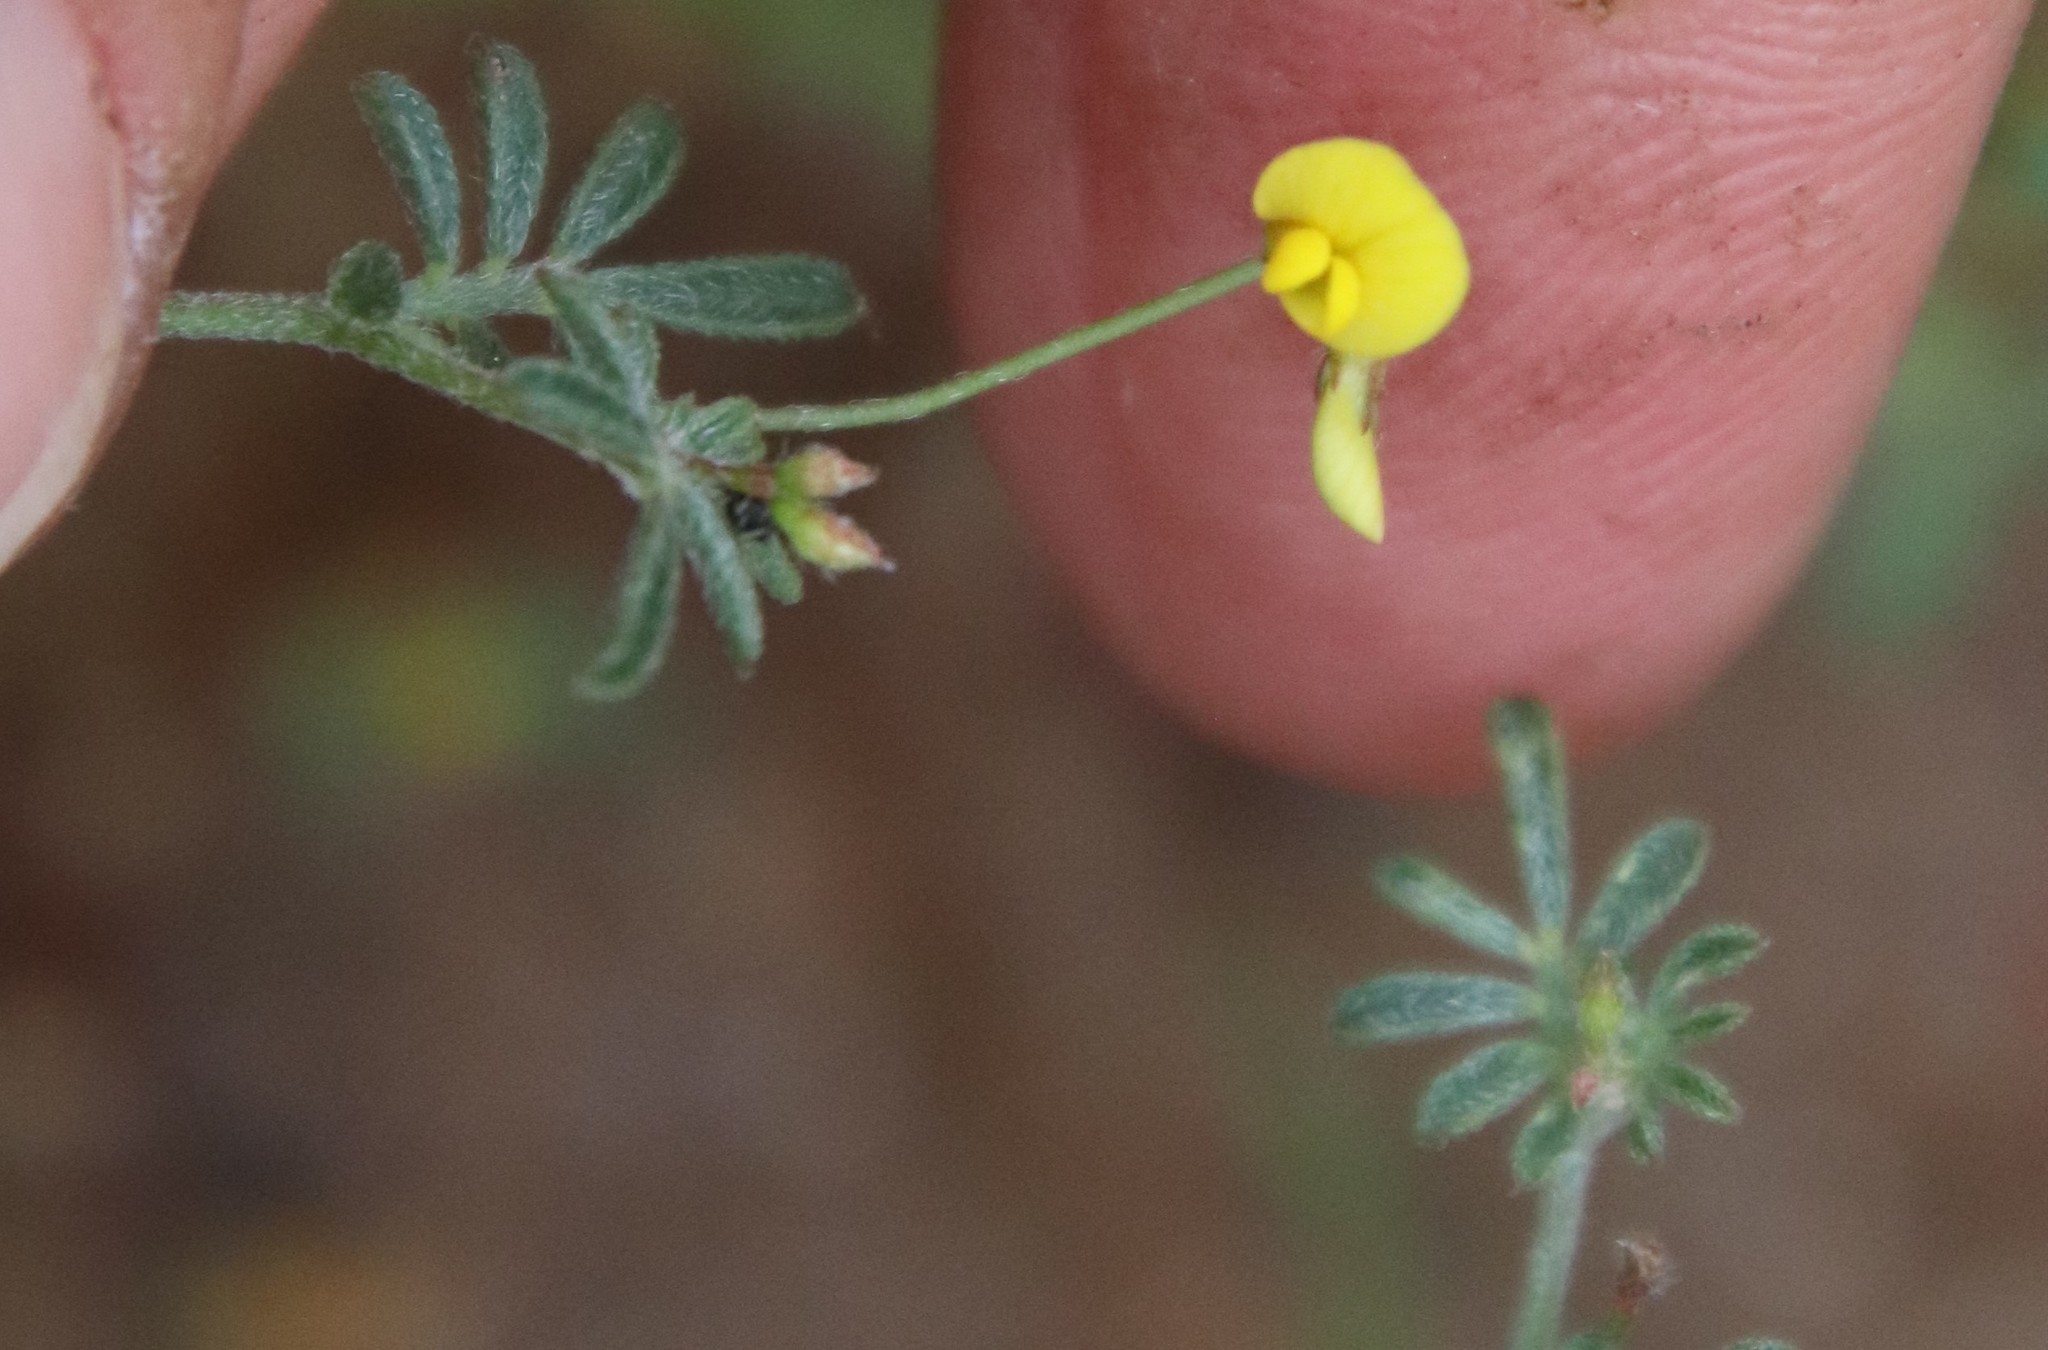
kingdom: Plantae
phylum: Tracheophyta
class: Magnoliopsida
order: Fabales
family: Fabaceae
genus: Acmispon
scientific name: Acmispon strigosus
